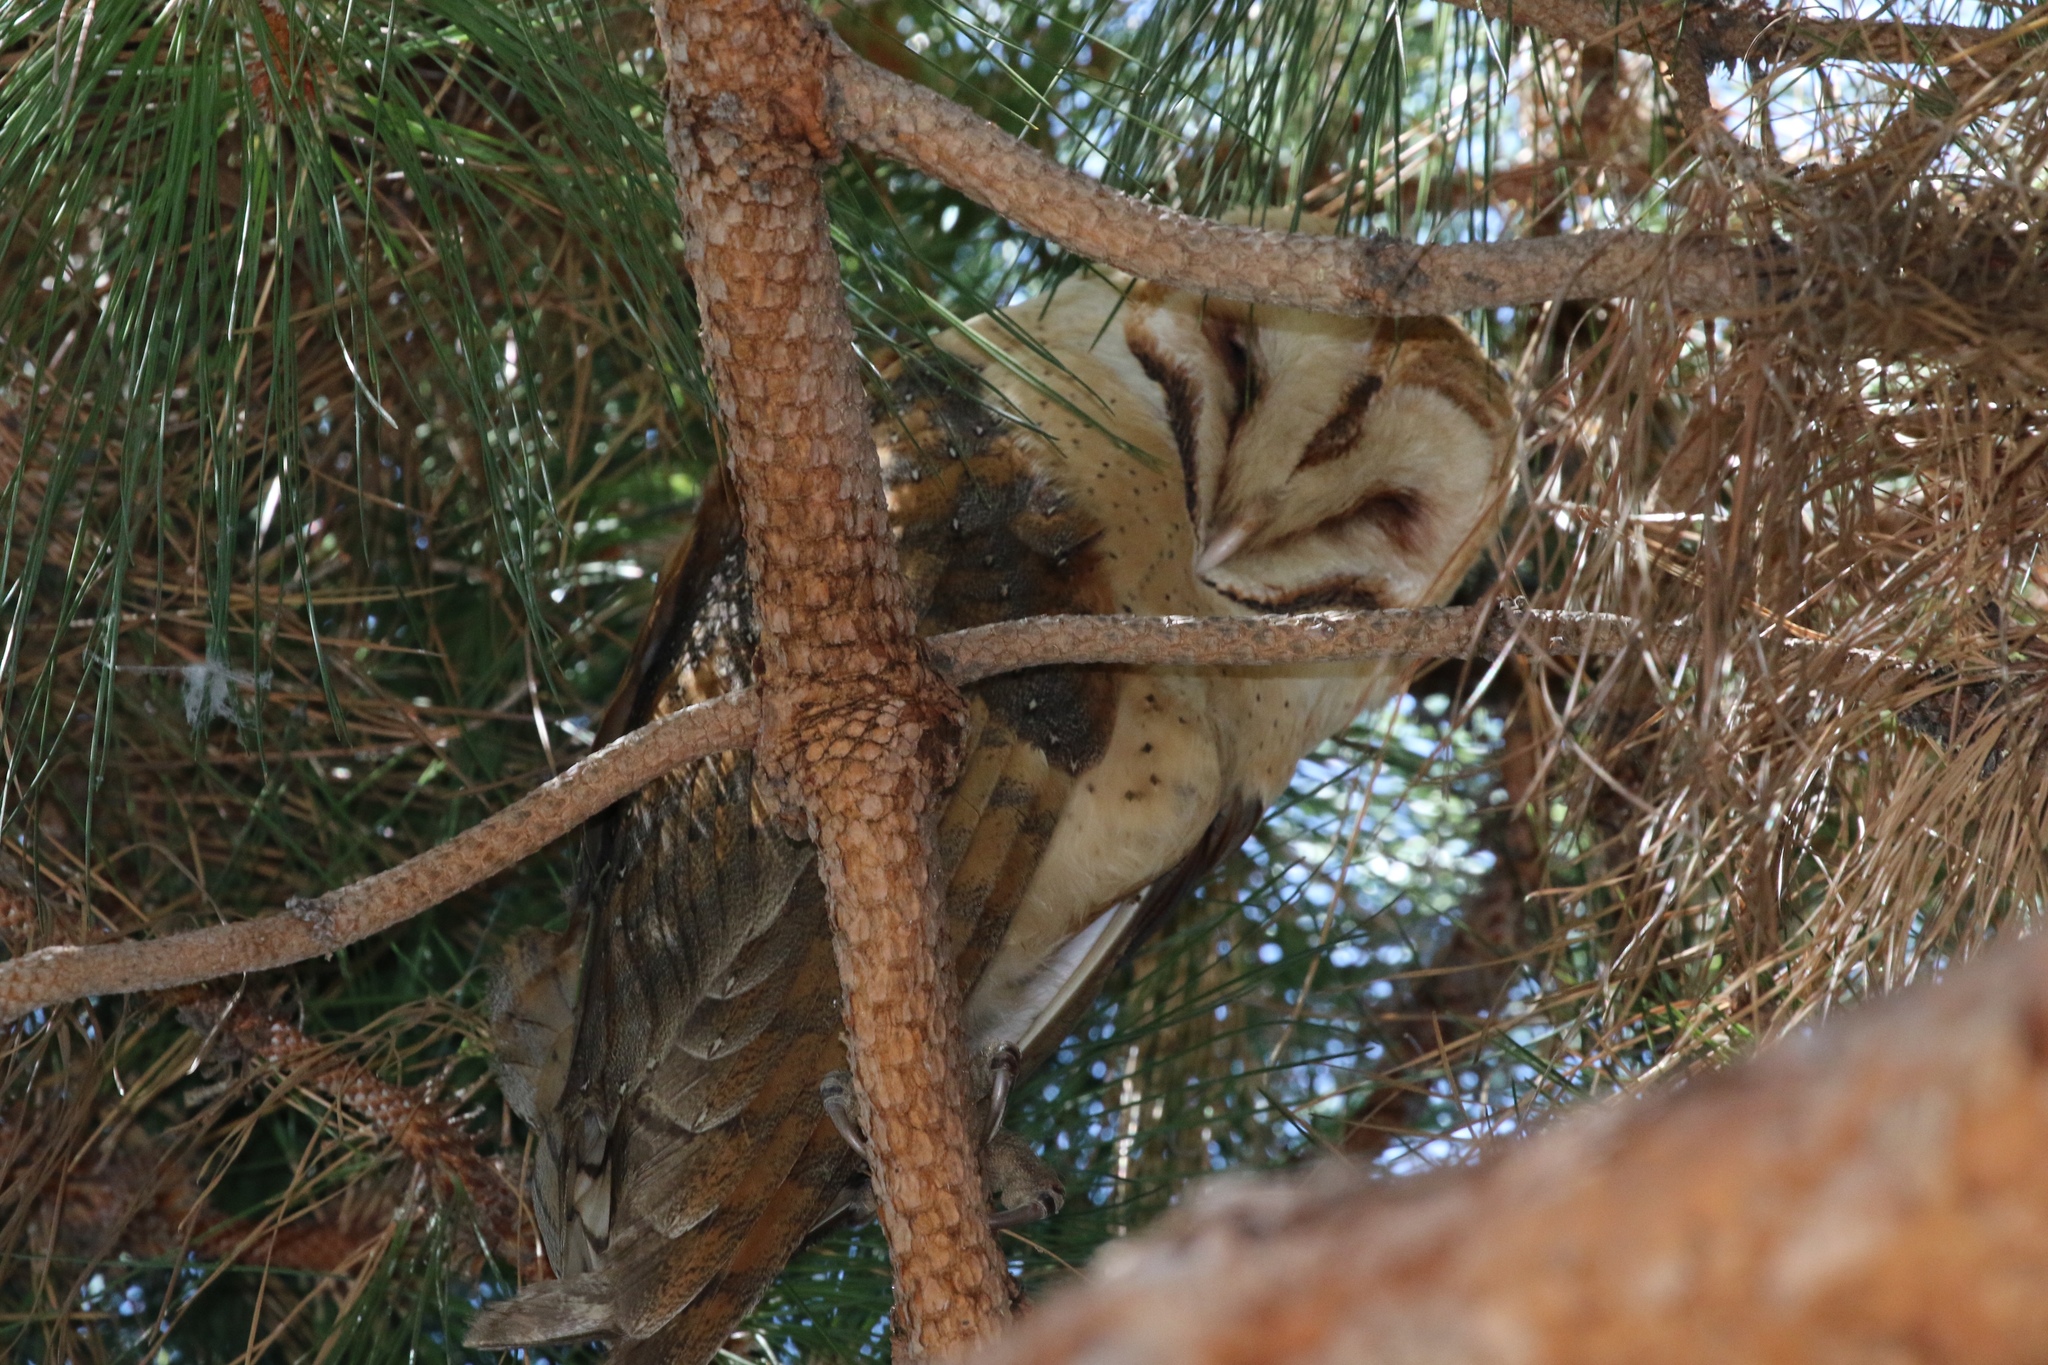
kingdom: Animalia
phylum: Chordata
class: Aves
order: Strigiformes
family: Tytonidae
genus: Tyto
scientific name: Tyto alba
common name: Barn owl
